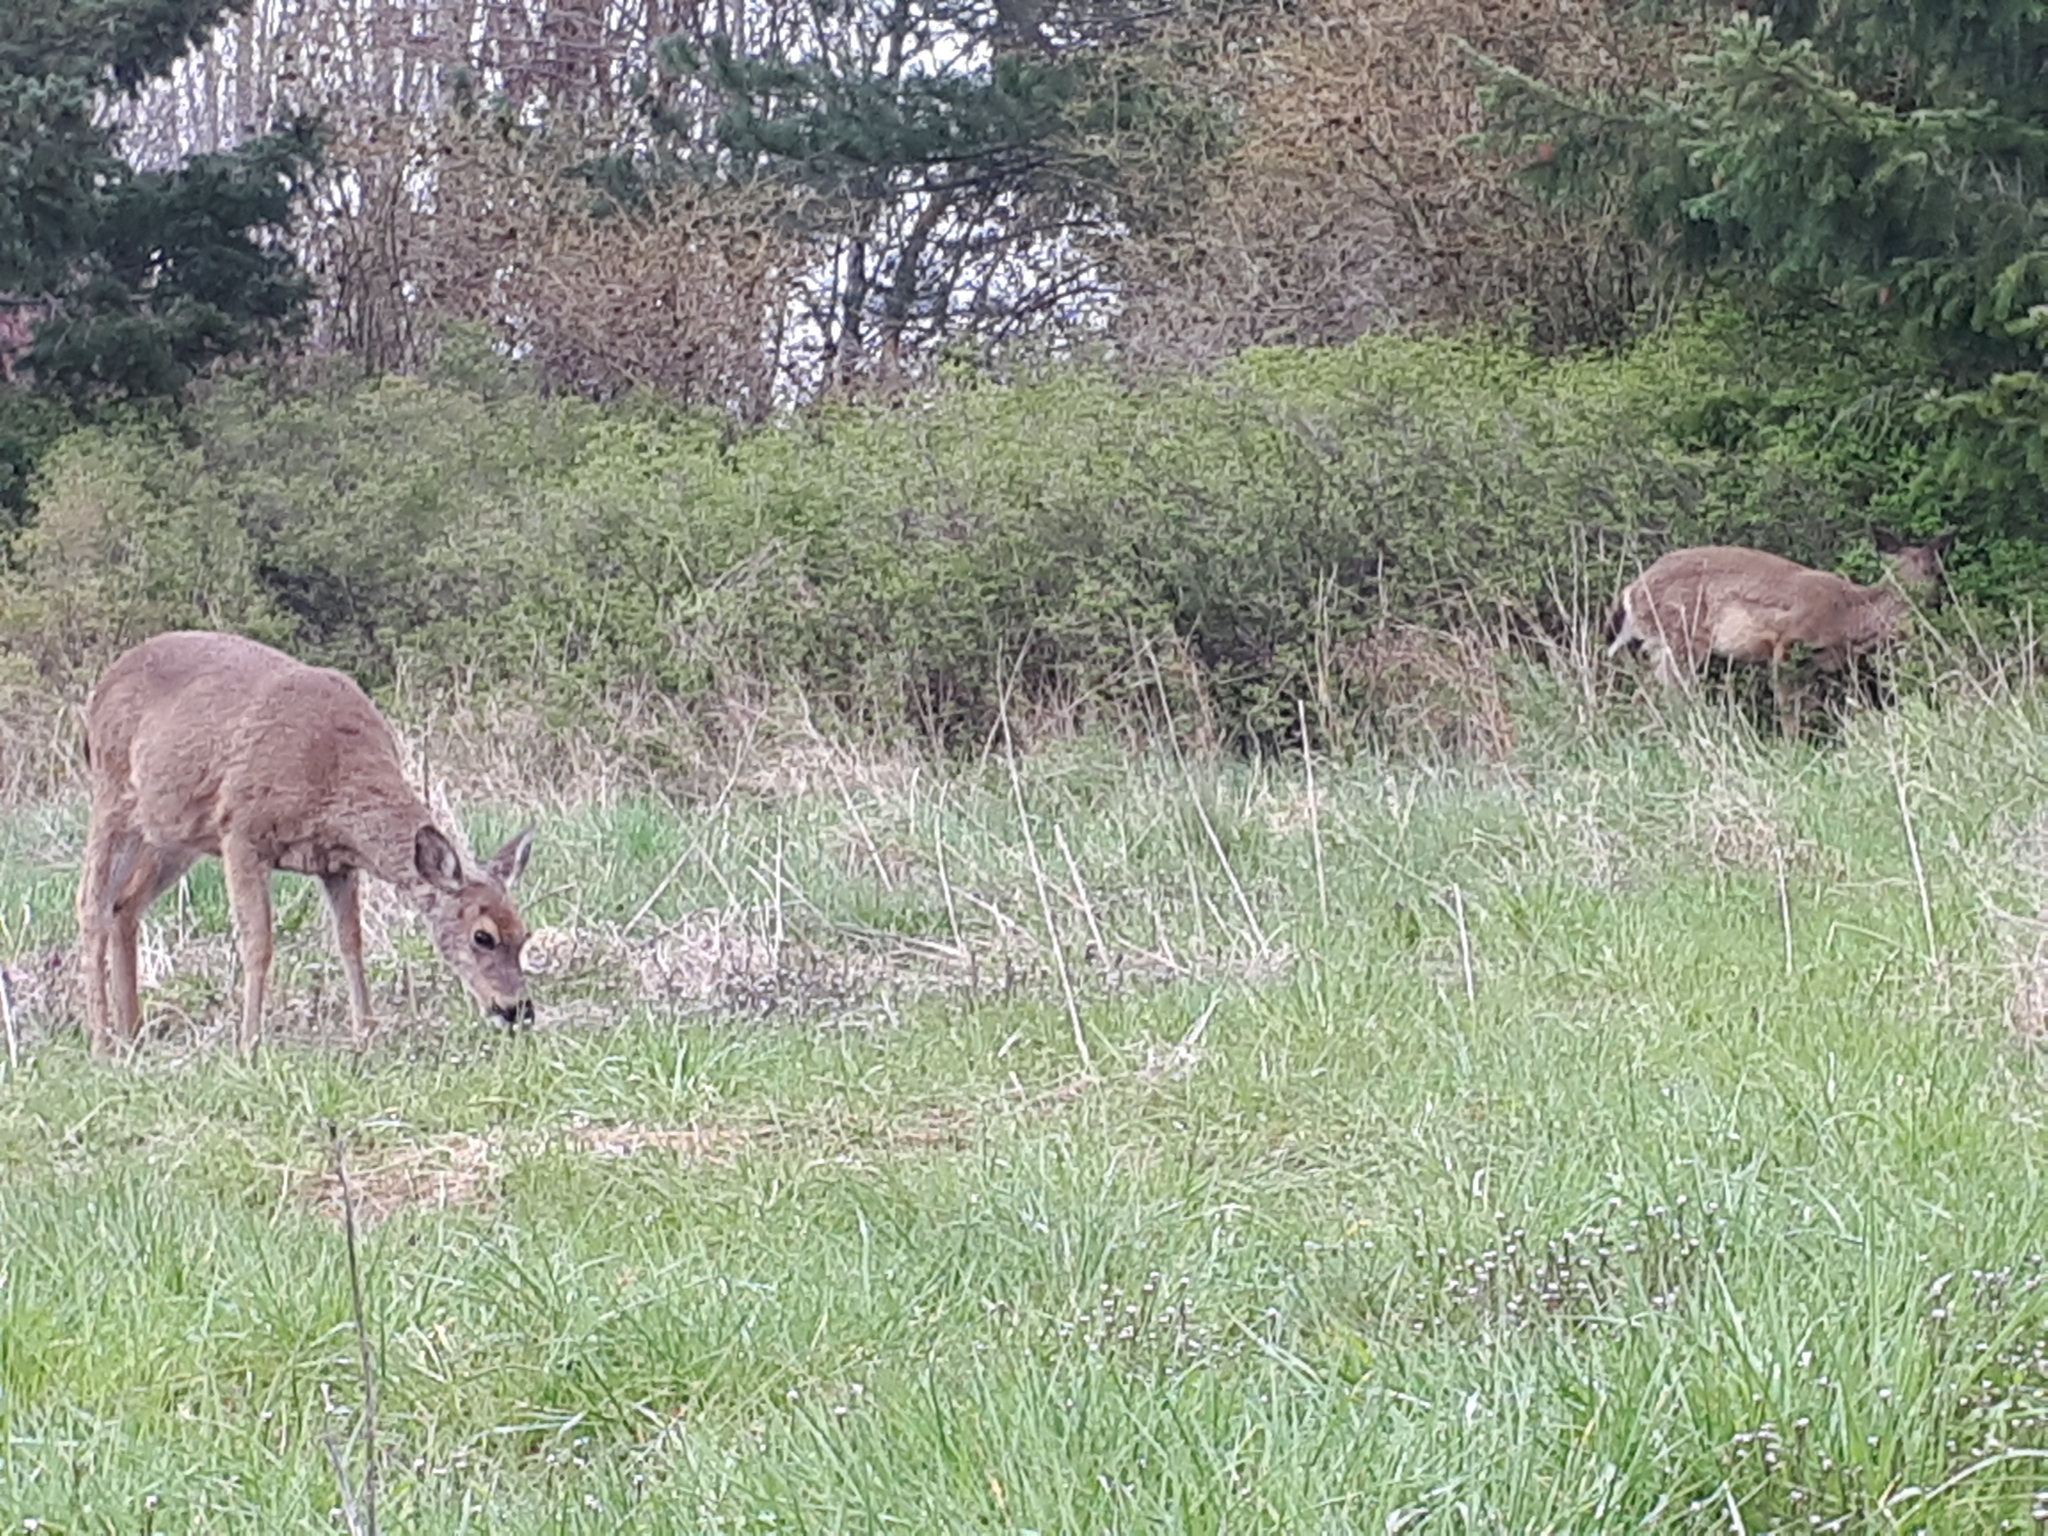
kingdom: Animalia
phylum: Chordata
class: Mammalia
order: Artiodactyla
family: Cervidae
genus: Odocoileus
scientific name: Odocoileus hemionus
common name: Mule deer
